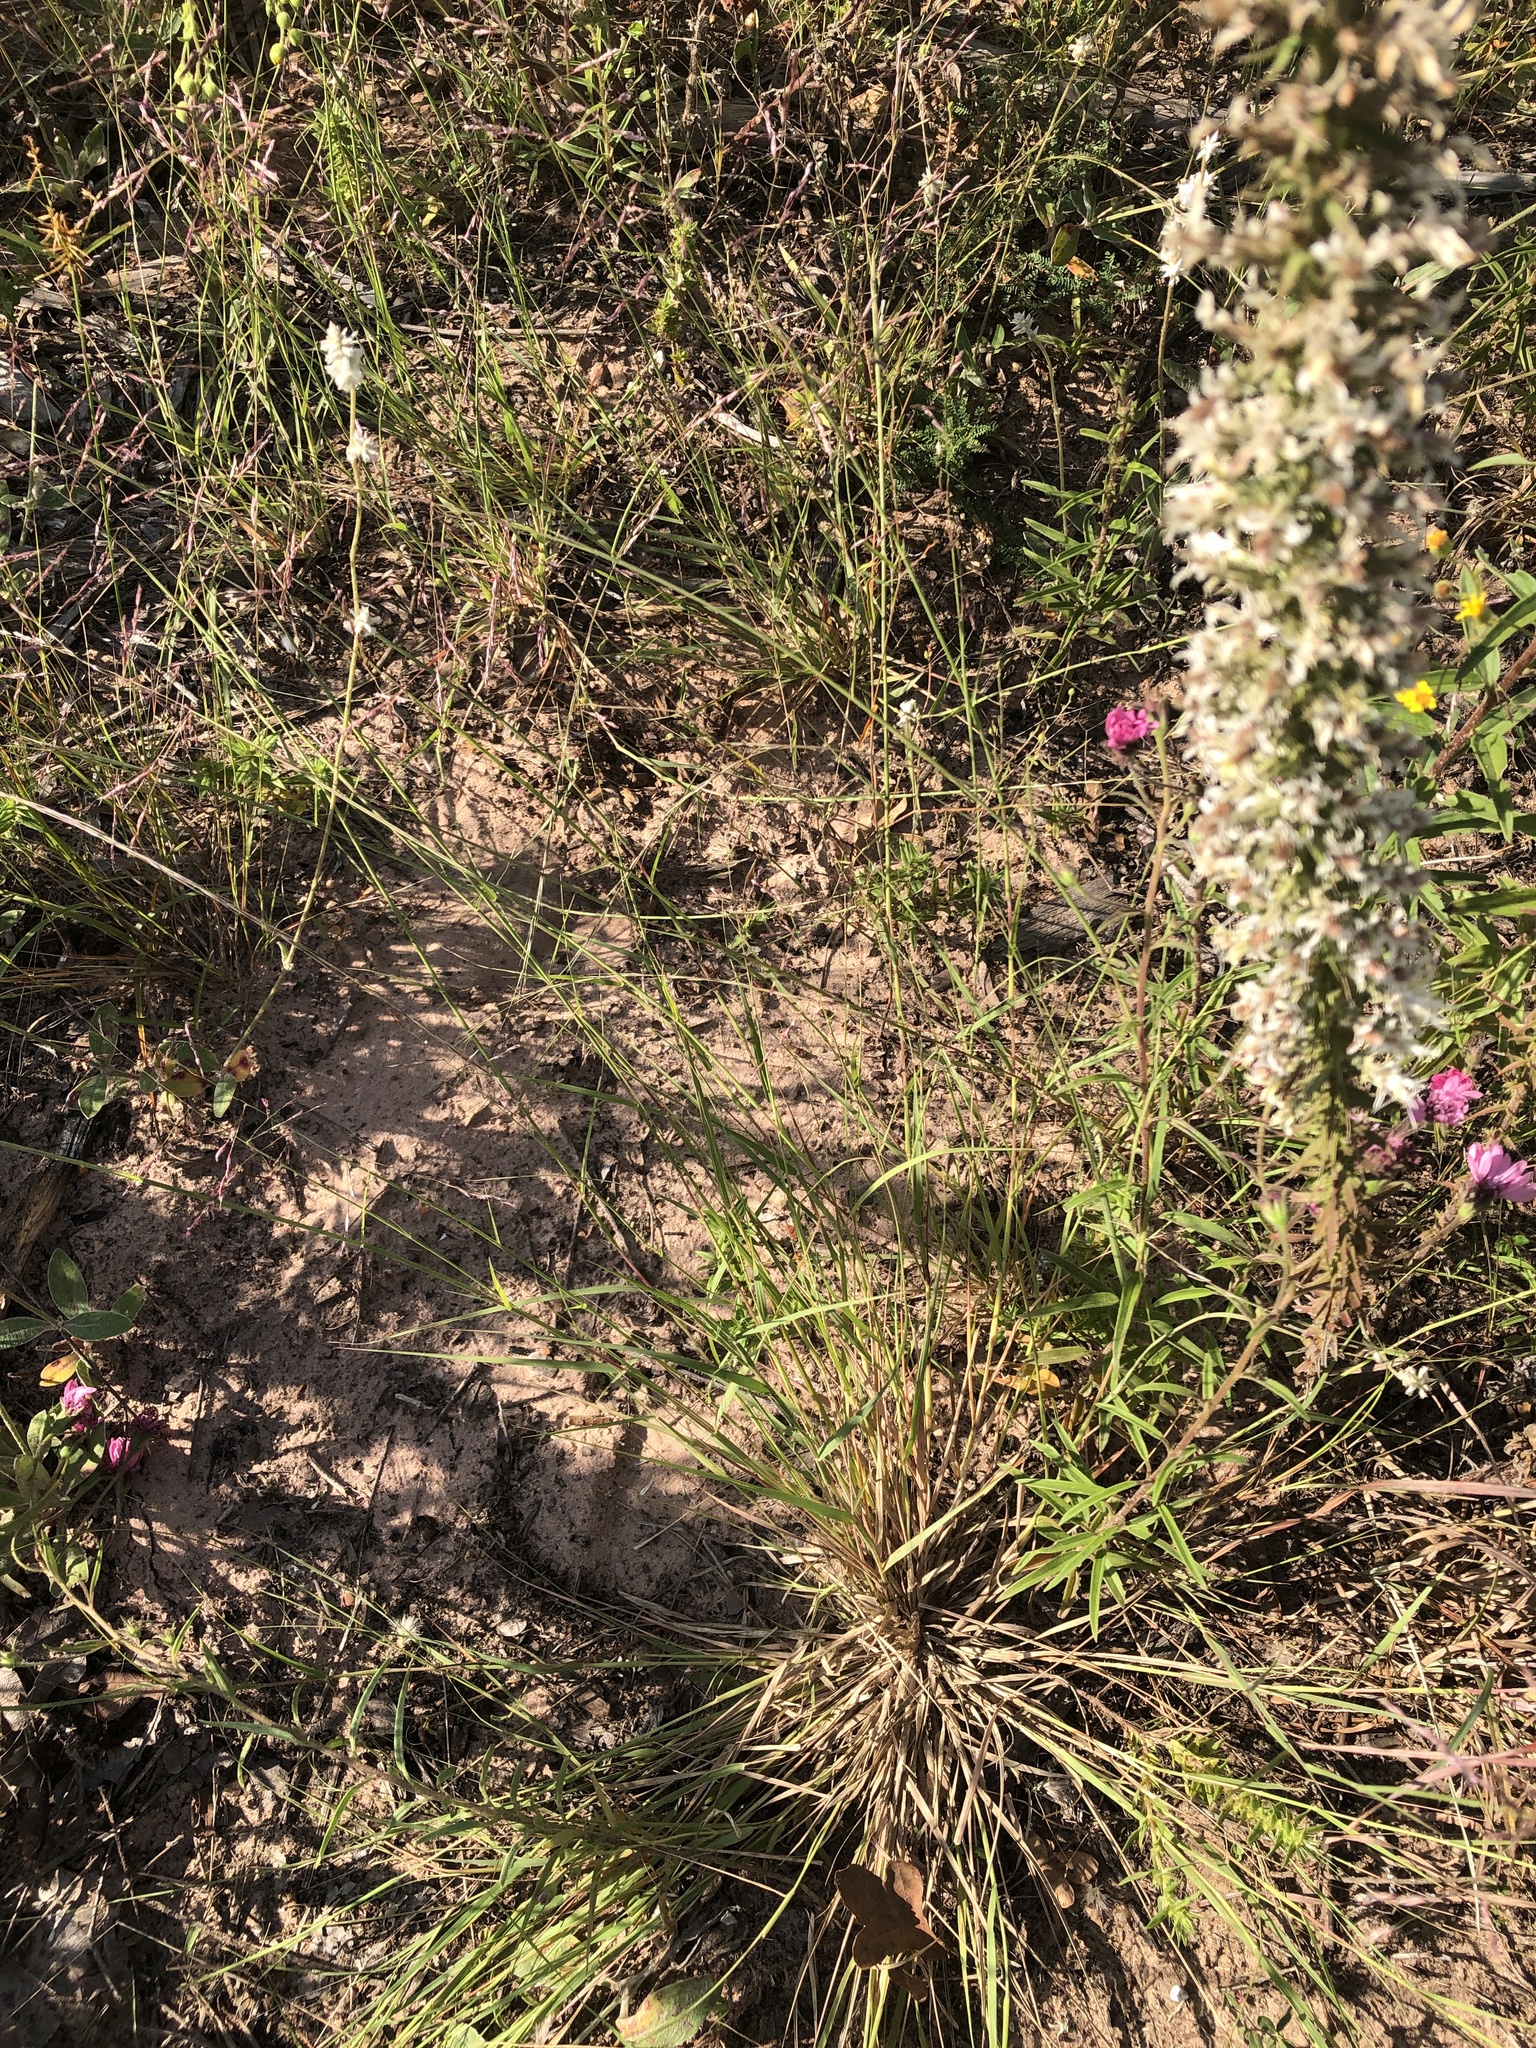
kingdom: Plantae
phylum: Tracheophyta
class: Liliopsida
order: Poales
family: Poaceae
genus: Triplasis
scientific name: Triplasis purpurea
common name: Purple sand grass
